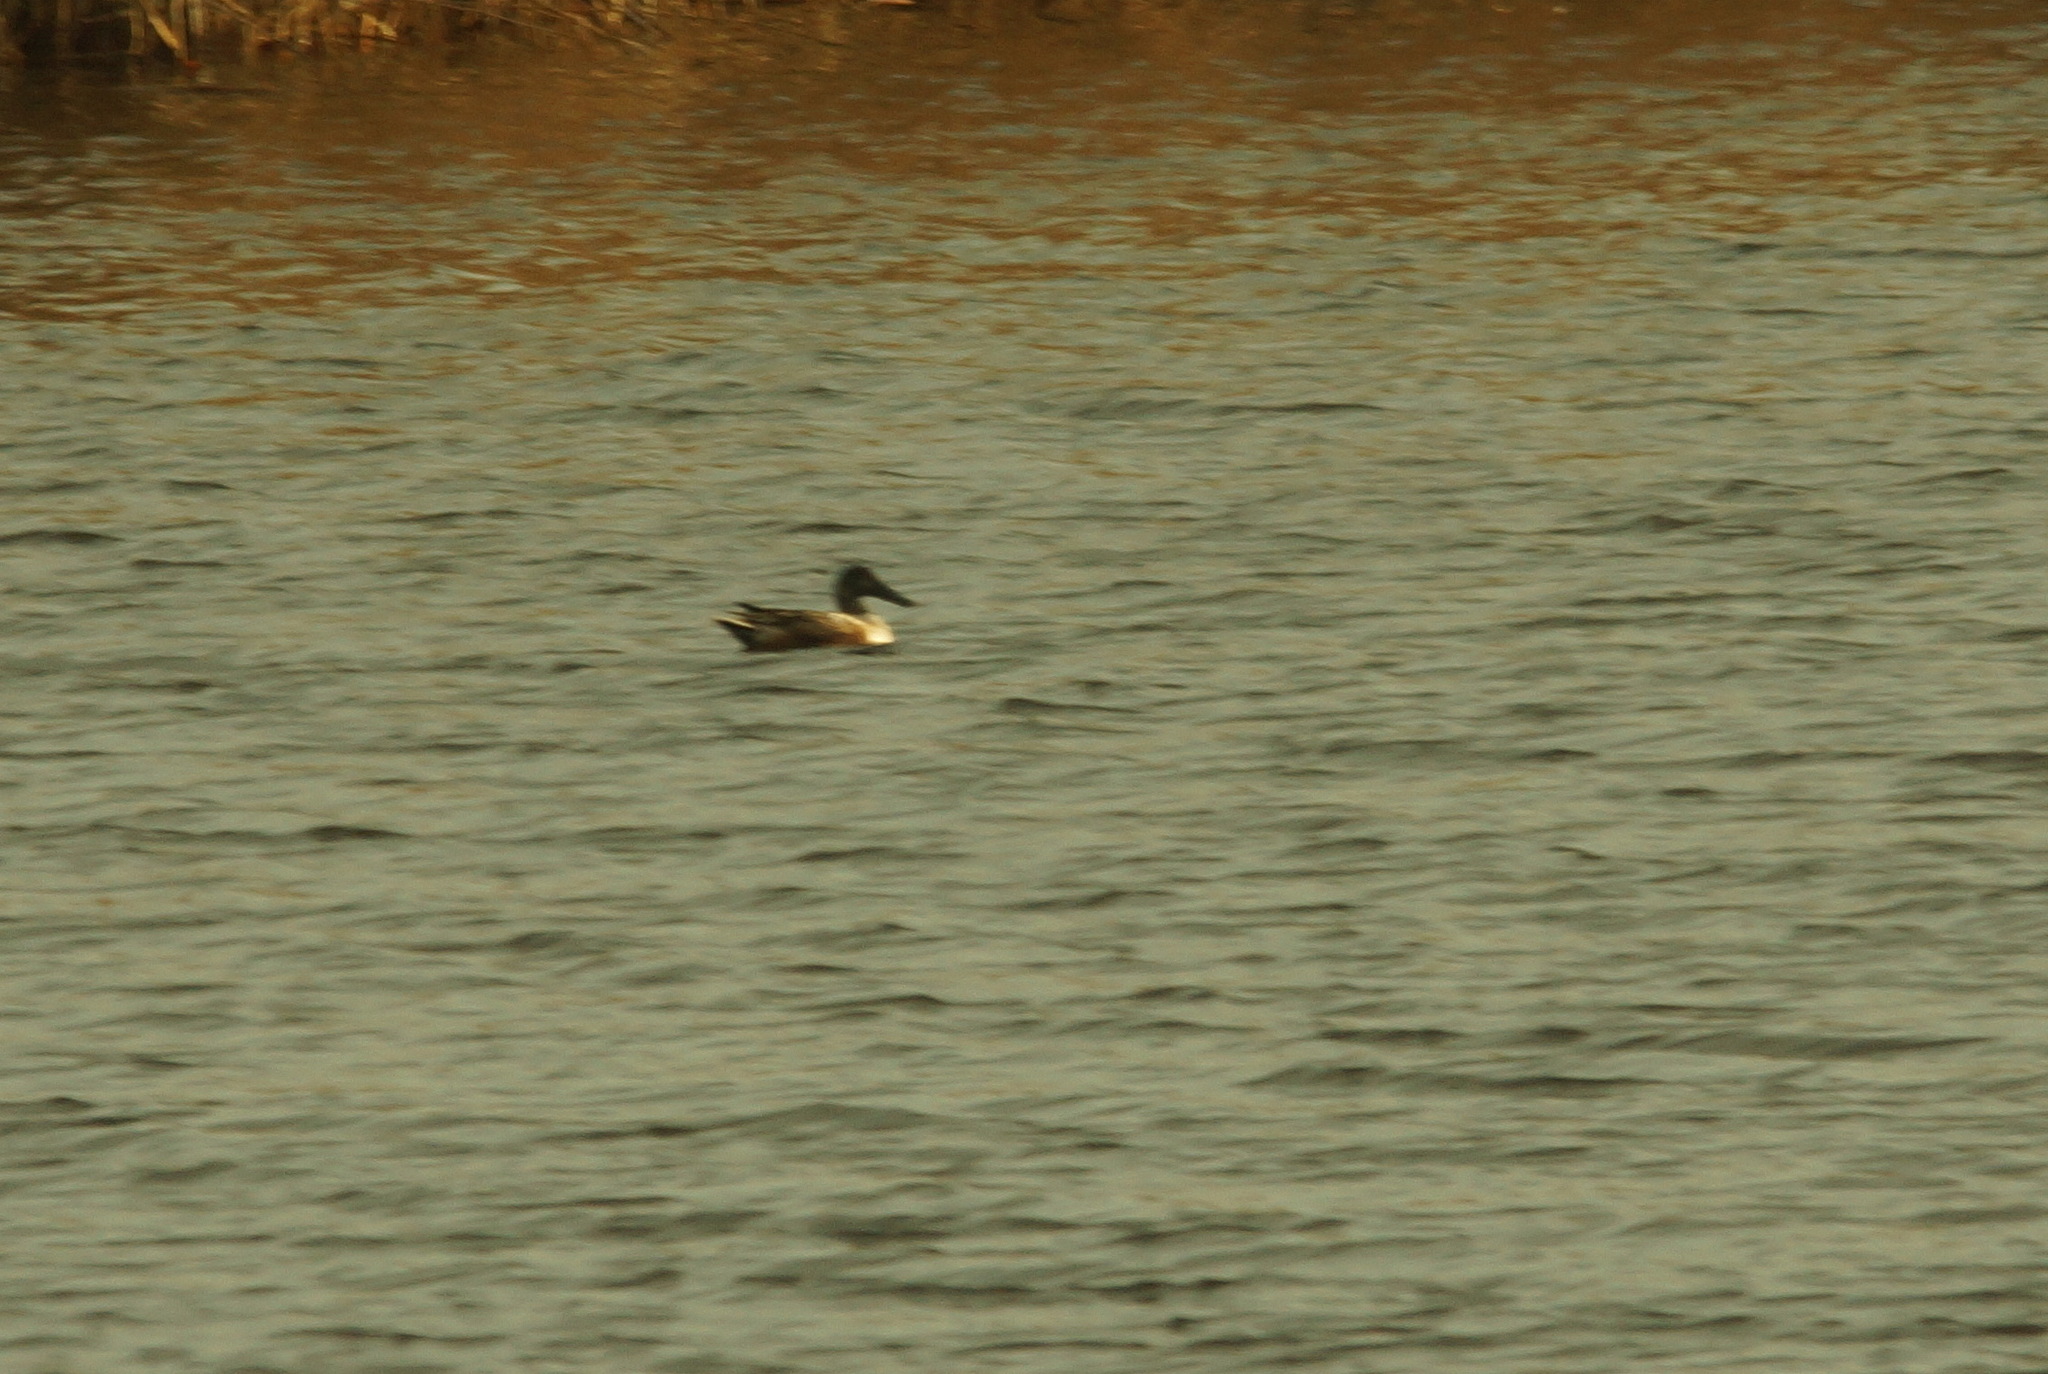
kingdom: Animalia
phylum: Chordata
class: Aves
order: Anseriformes
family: Anatidae
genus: Spatula
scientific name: Spatula clypeata
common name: Northern shoveler
